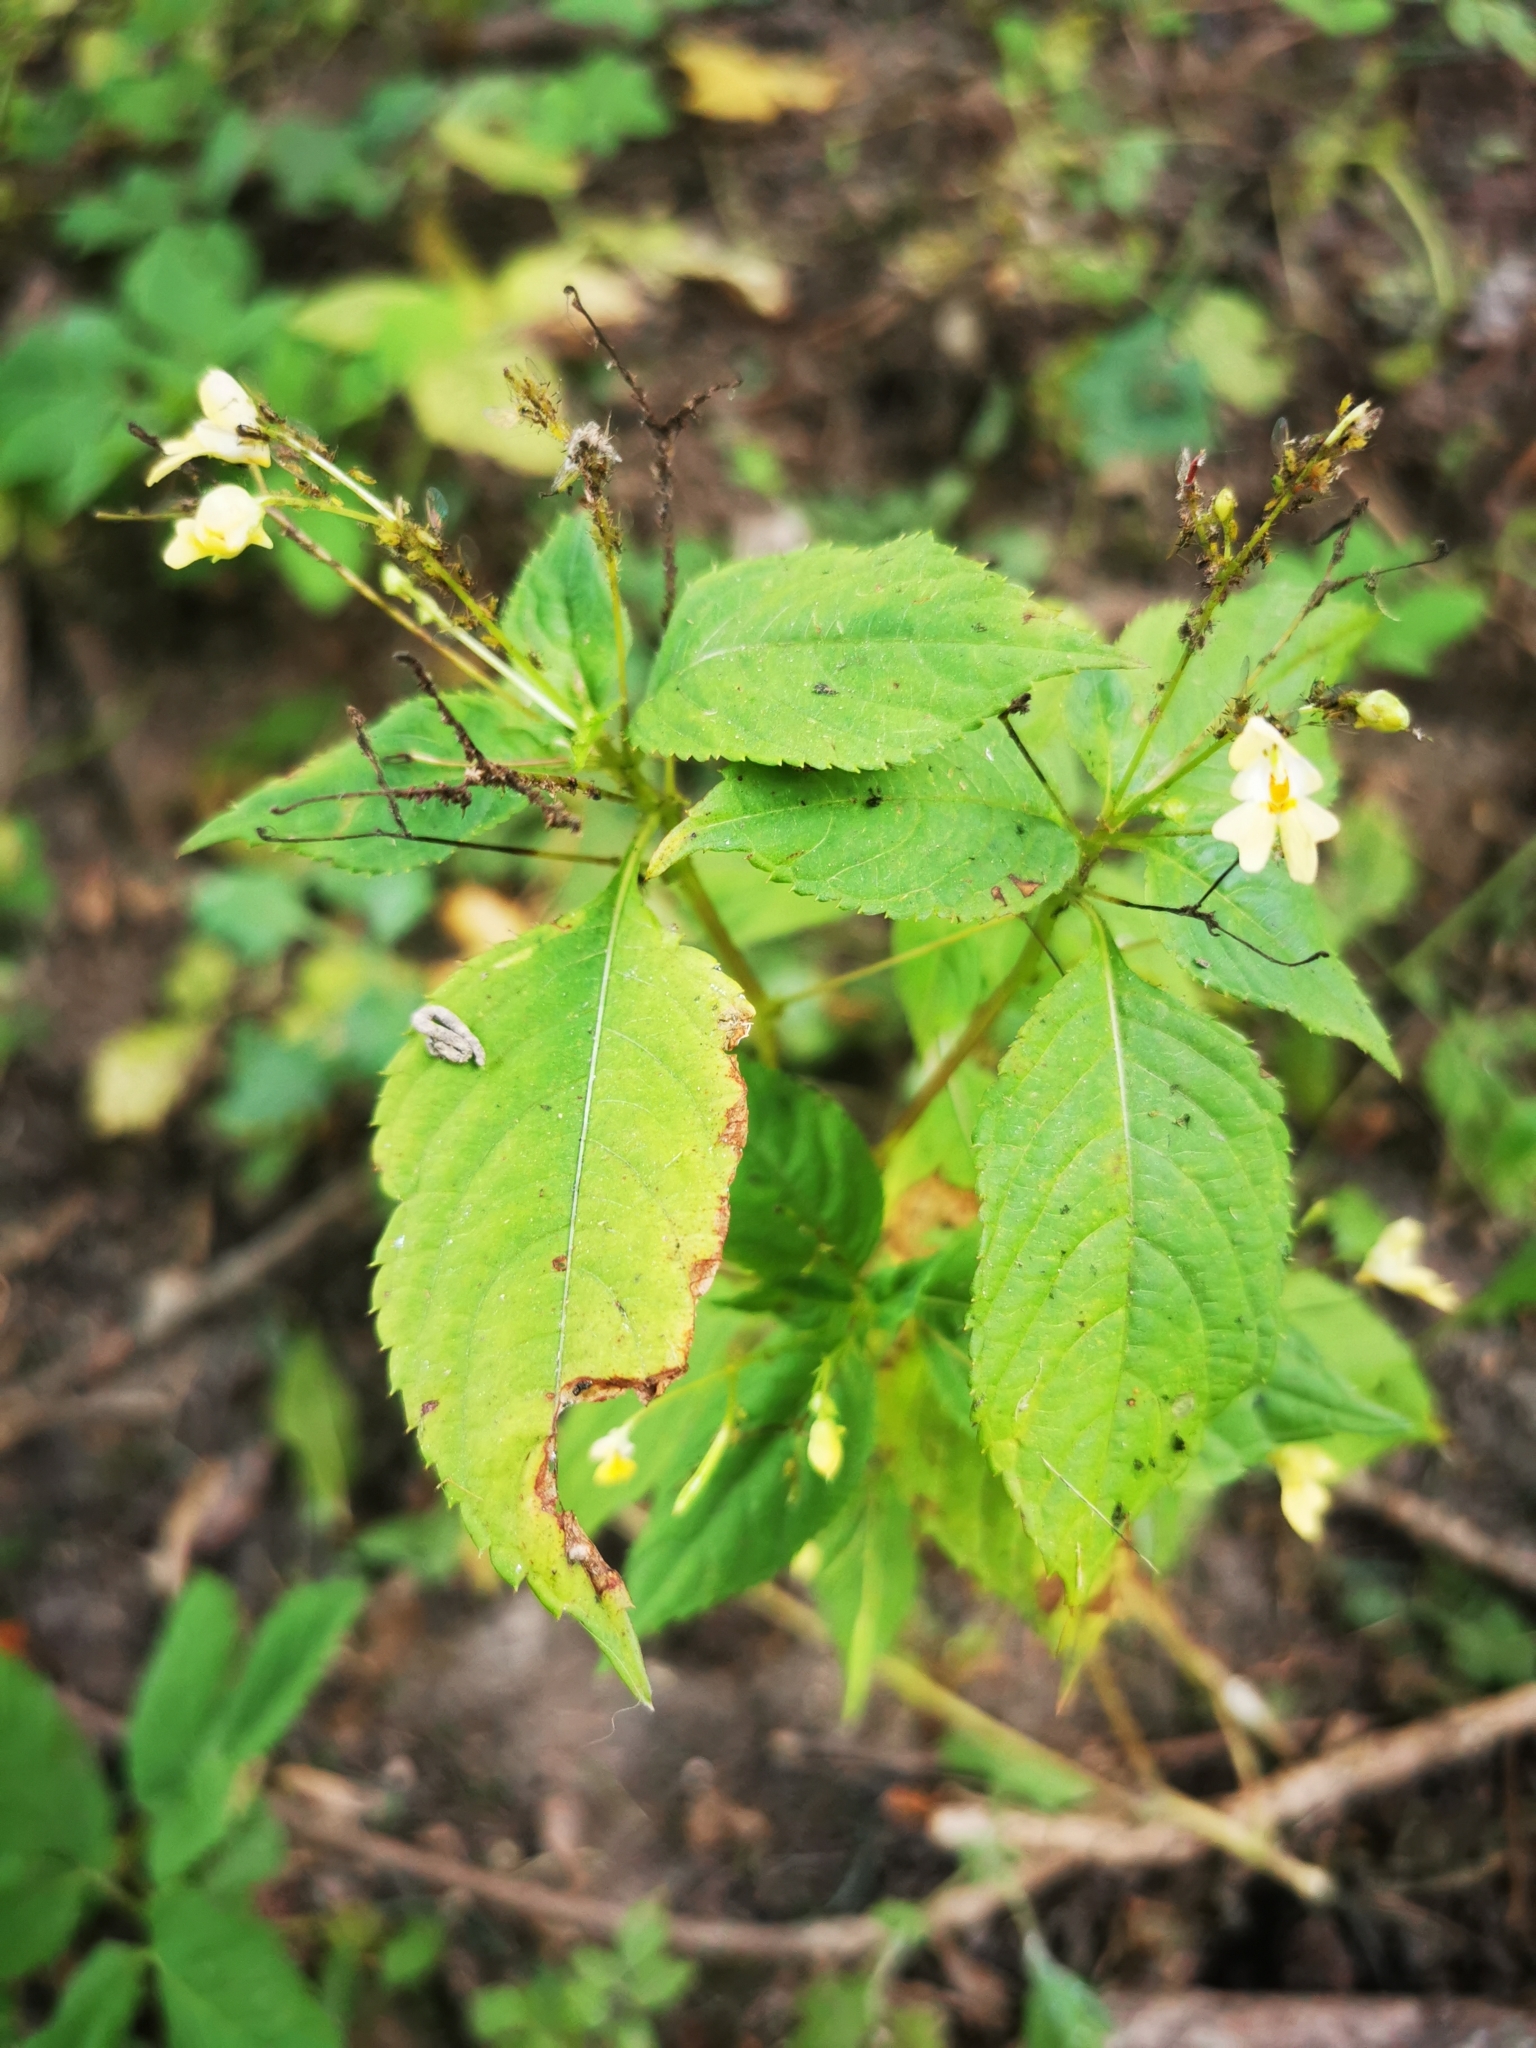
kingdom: Plantae
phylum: Tracheophyta
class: Magnoliopsida
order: Ericales
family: Balsaminaceae
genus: Impatiens
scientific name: Impatiens parviflora
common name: Small balsam
